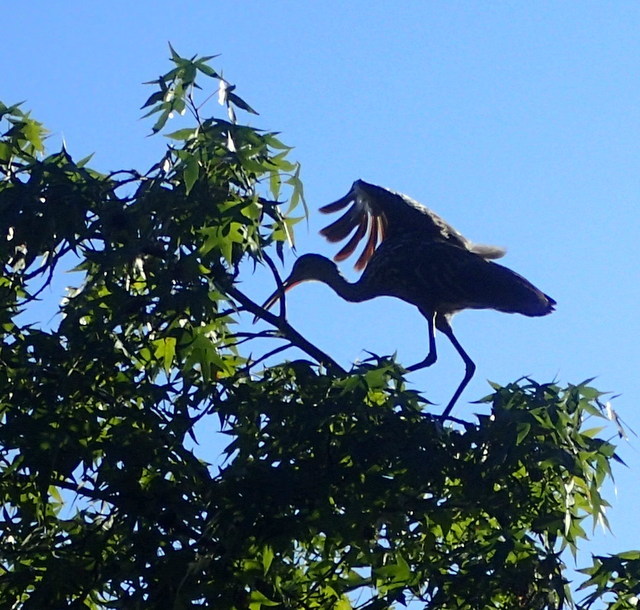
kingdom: Animalia
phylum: Chordata
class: Aves
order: Gruiformes
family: Aramidae
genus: Aramus
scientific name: Aramus guarauna
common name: Limpkin
